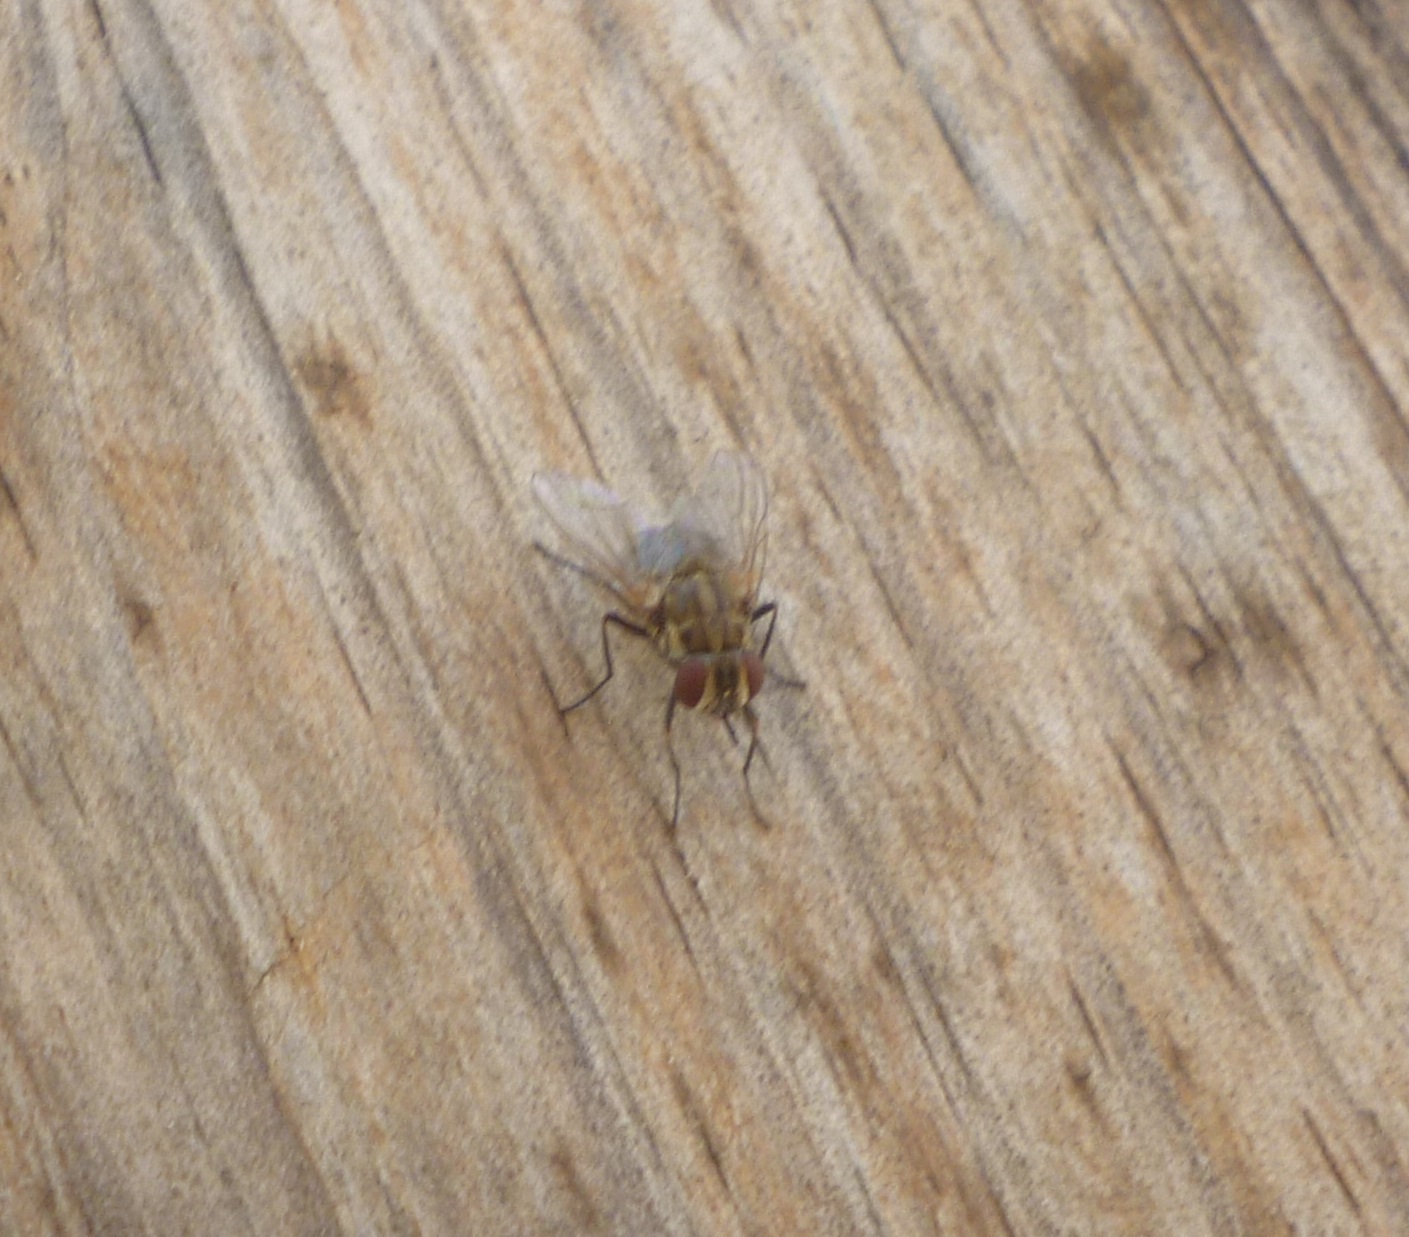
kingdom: Animalia
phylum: Arthropoda
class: Insecta
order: Diptera
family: Muscidae
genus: Stomoxys
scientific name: Stomoxys calcitrans
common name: Stable fly
